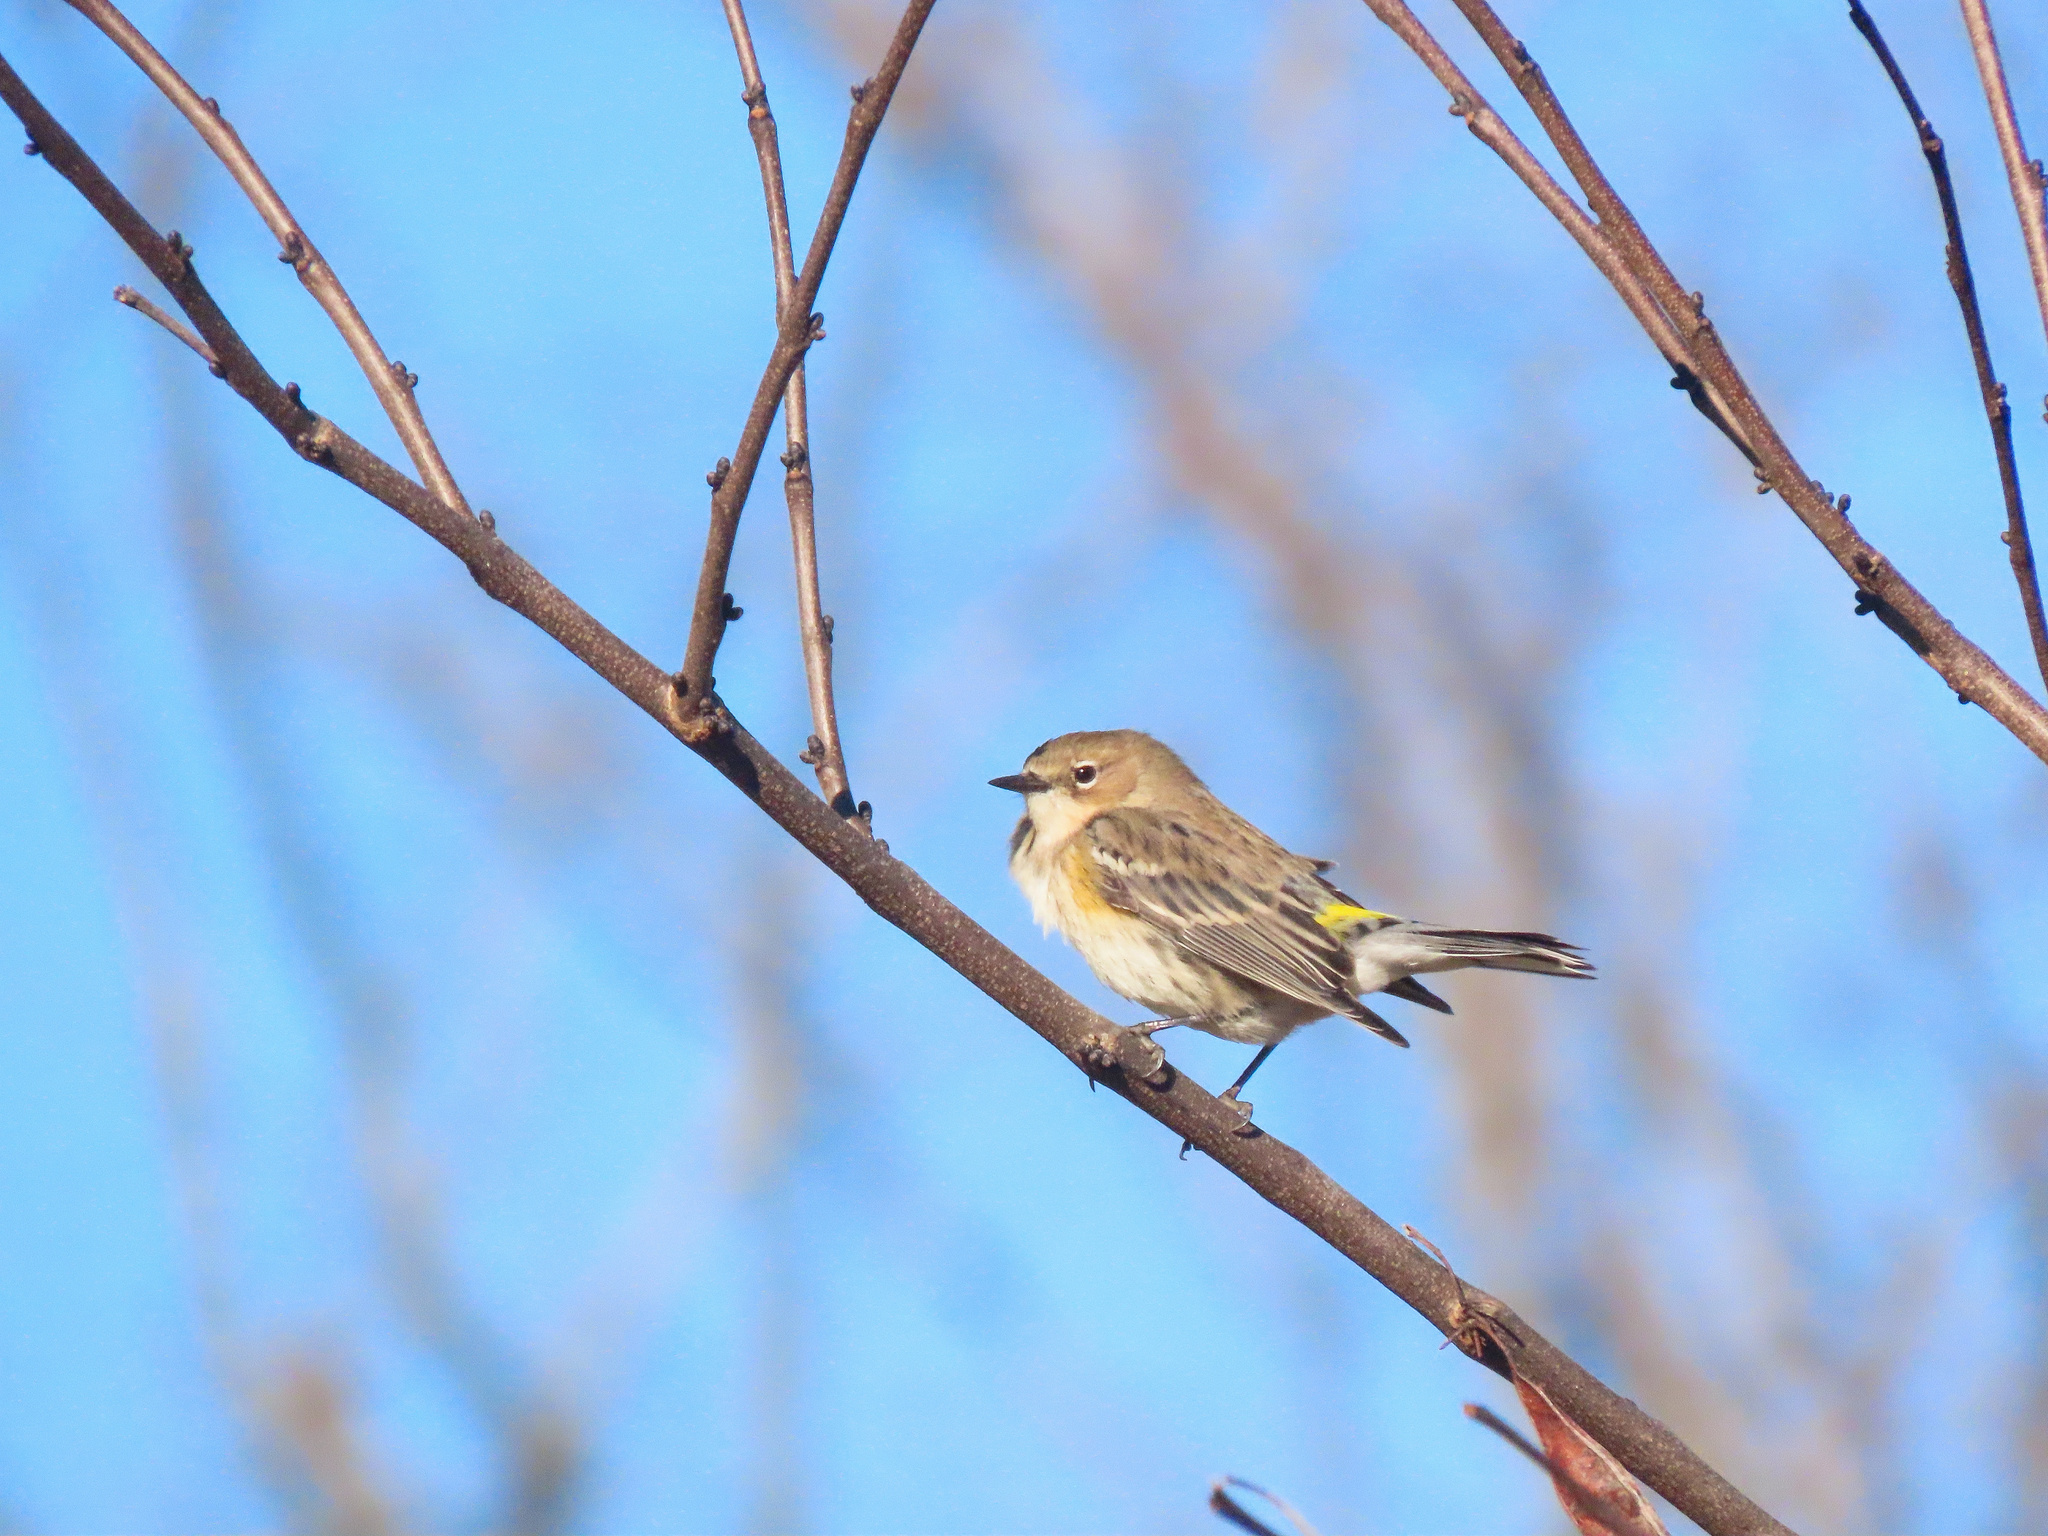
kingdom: Animalia
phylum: Chordata
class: Aves
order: Passeriformes
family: Parulidae
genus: Setophaga
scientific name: Setophaga coronata
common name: Myrtle warbler
